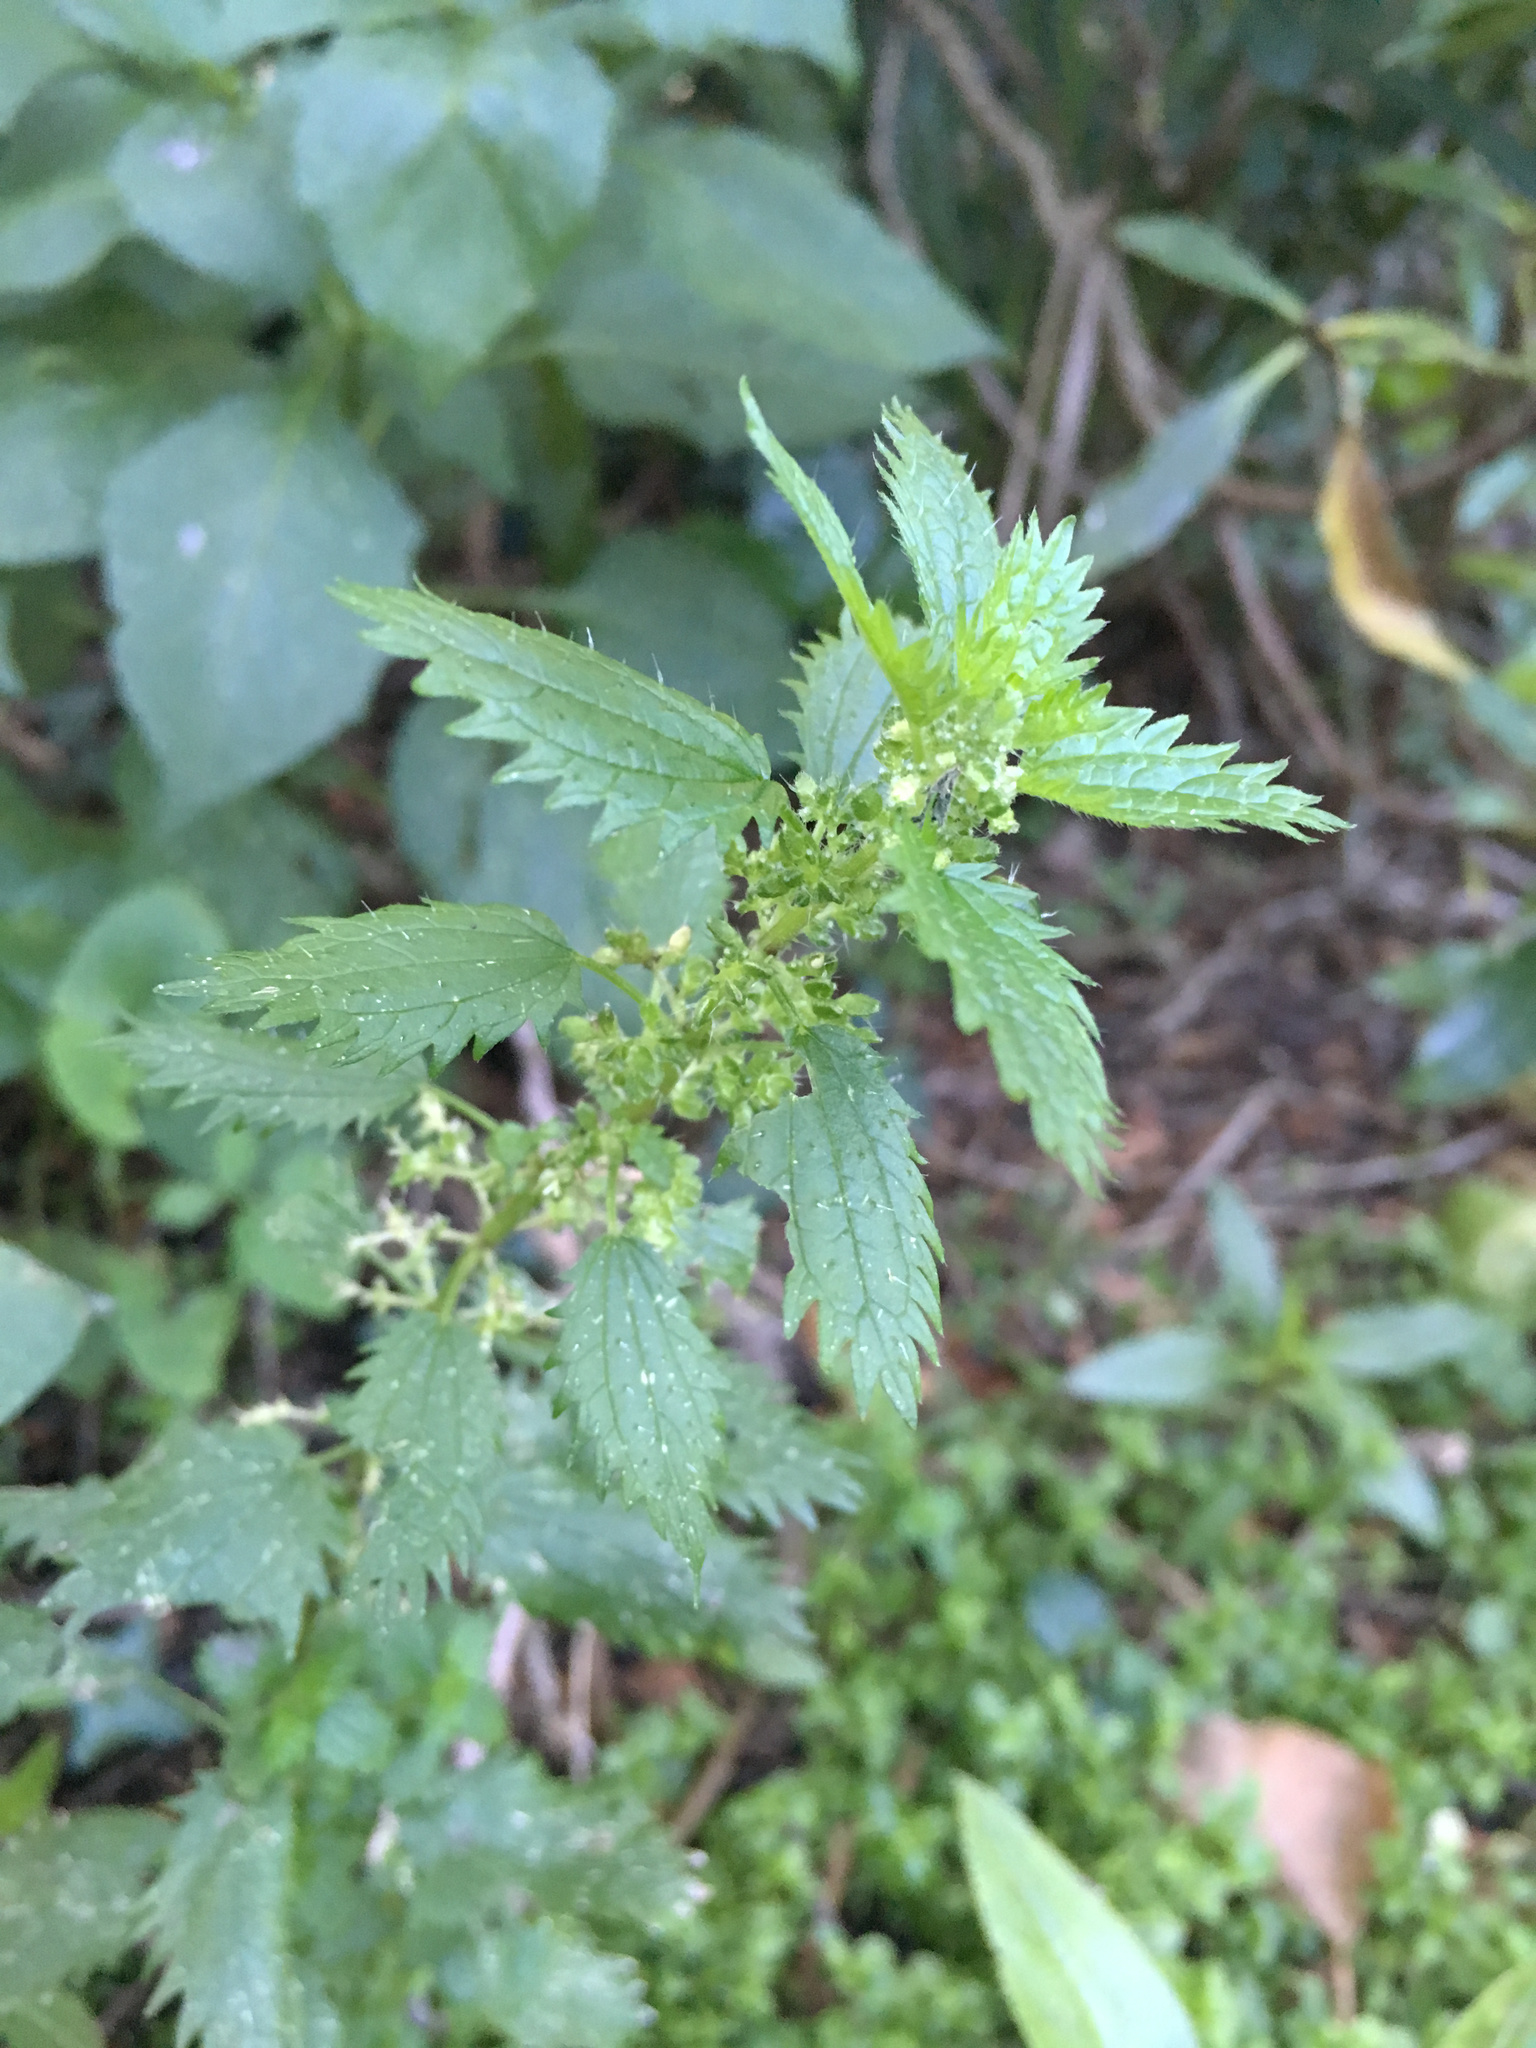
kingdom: Plantae
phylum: Tracheophyta
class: Magnoliopsida
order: Rosales
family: Urticaceae
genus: Urtica
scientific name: Urtica urens
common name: Dwarf nettle
